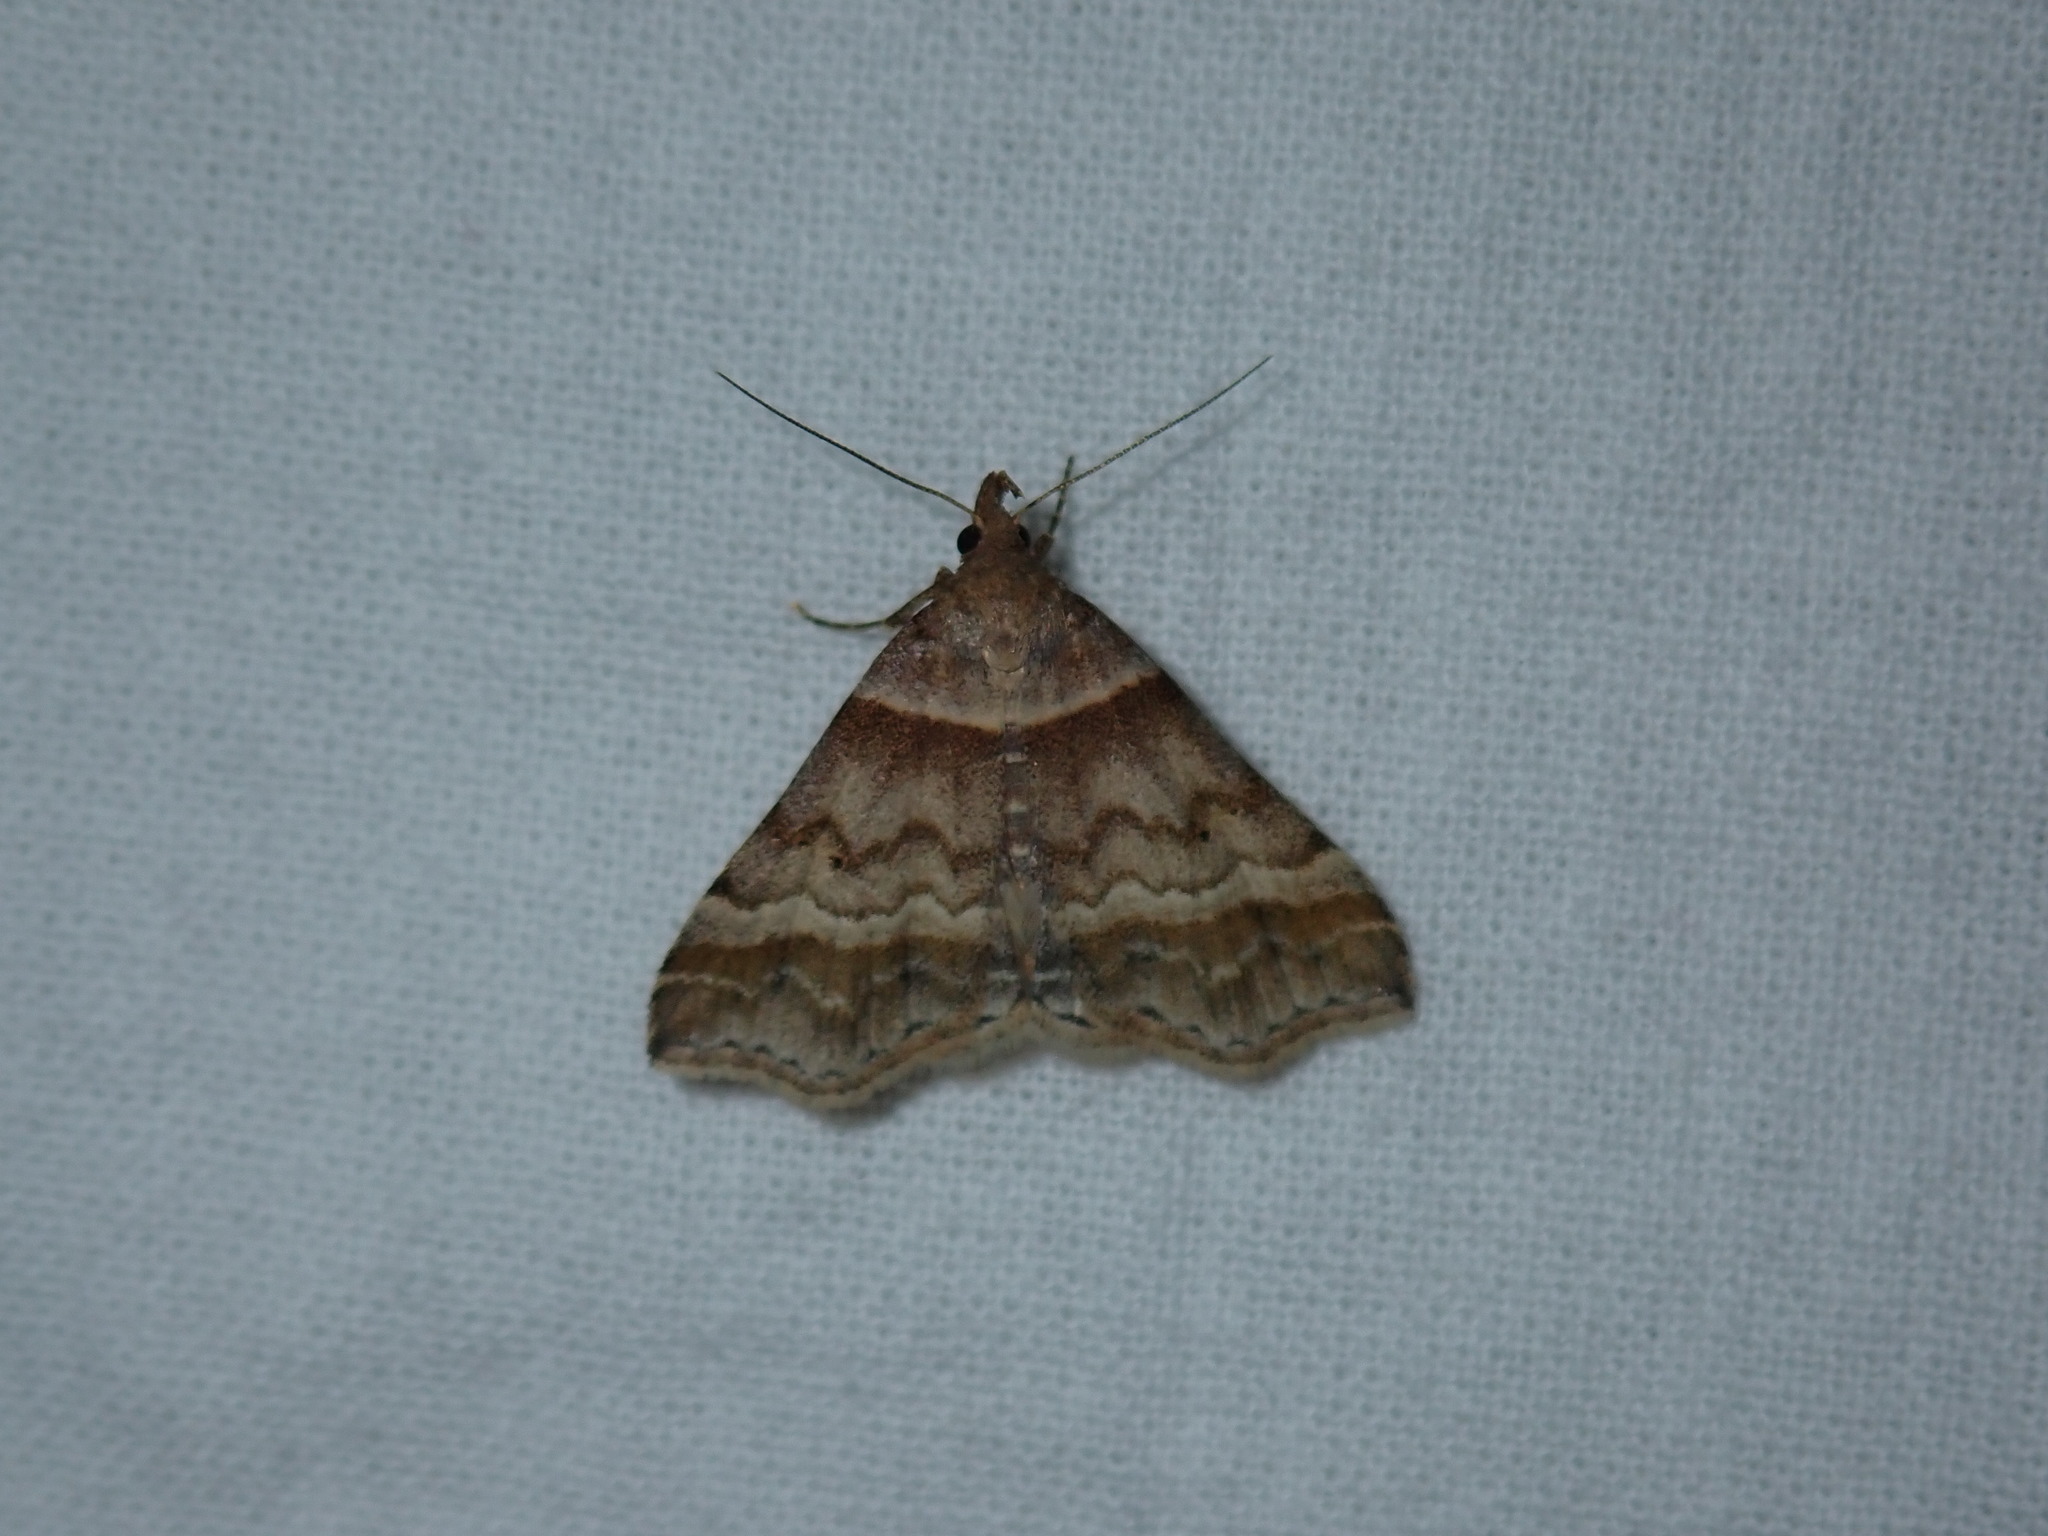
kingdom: Animalia
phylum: Arthropoda
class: Insecta
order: Lepidoptera
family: Erebidae
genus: Phaeolita
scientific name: Phaeolita pyramusalis
